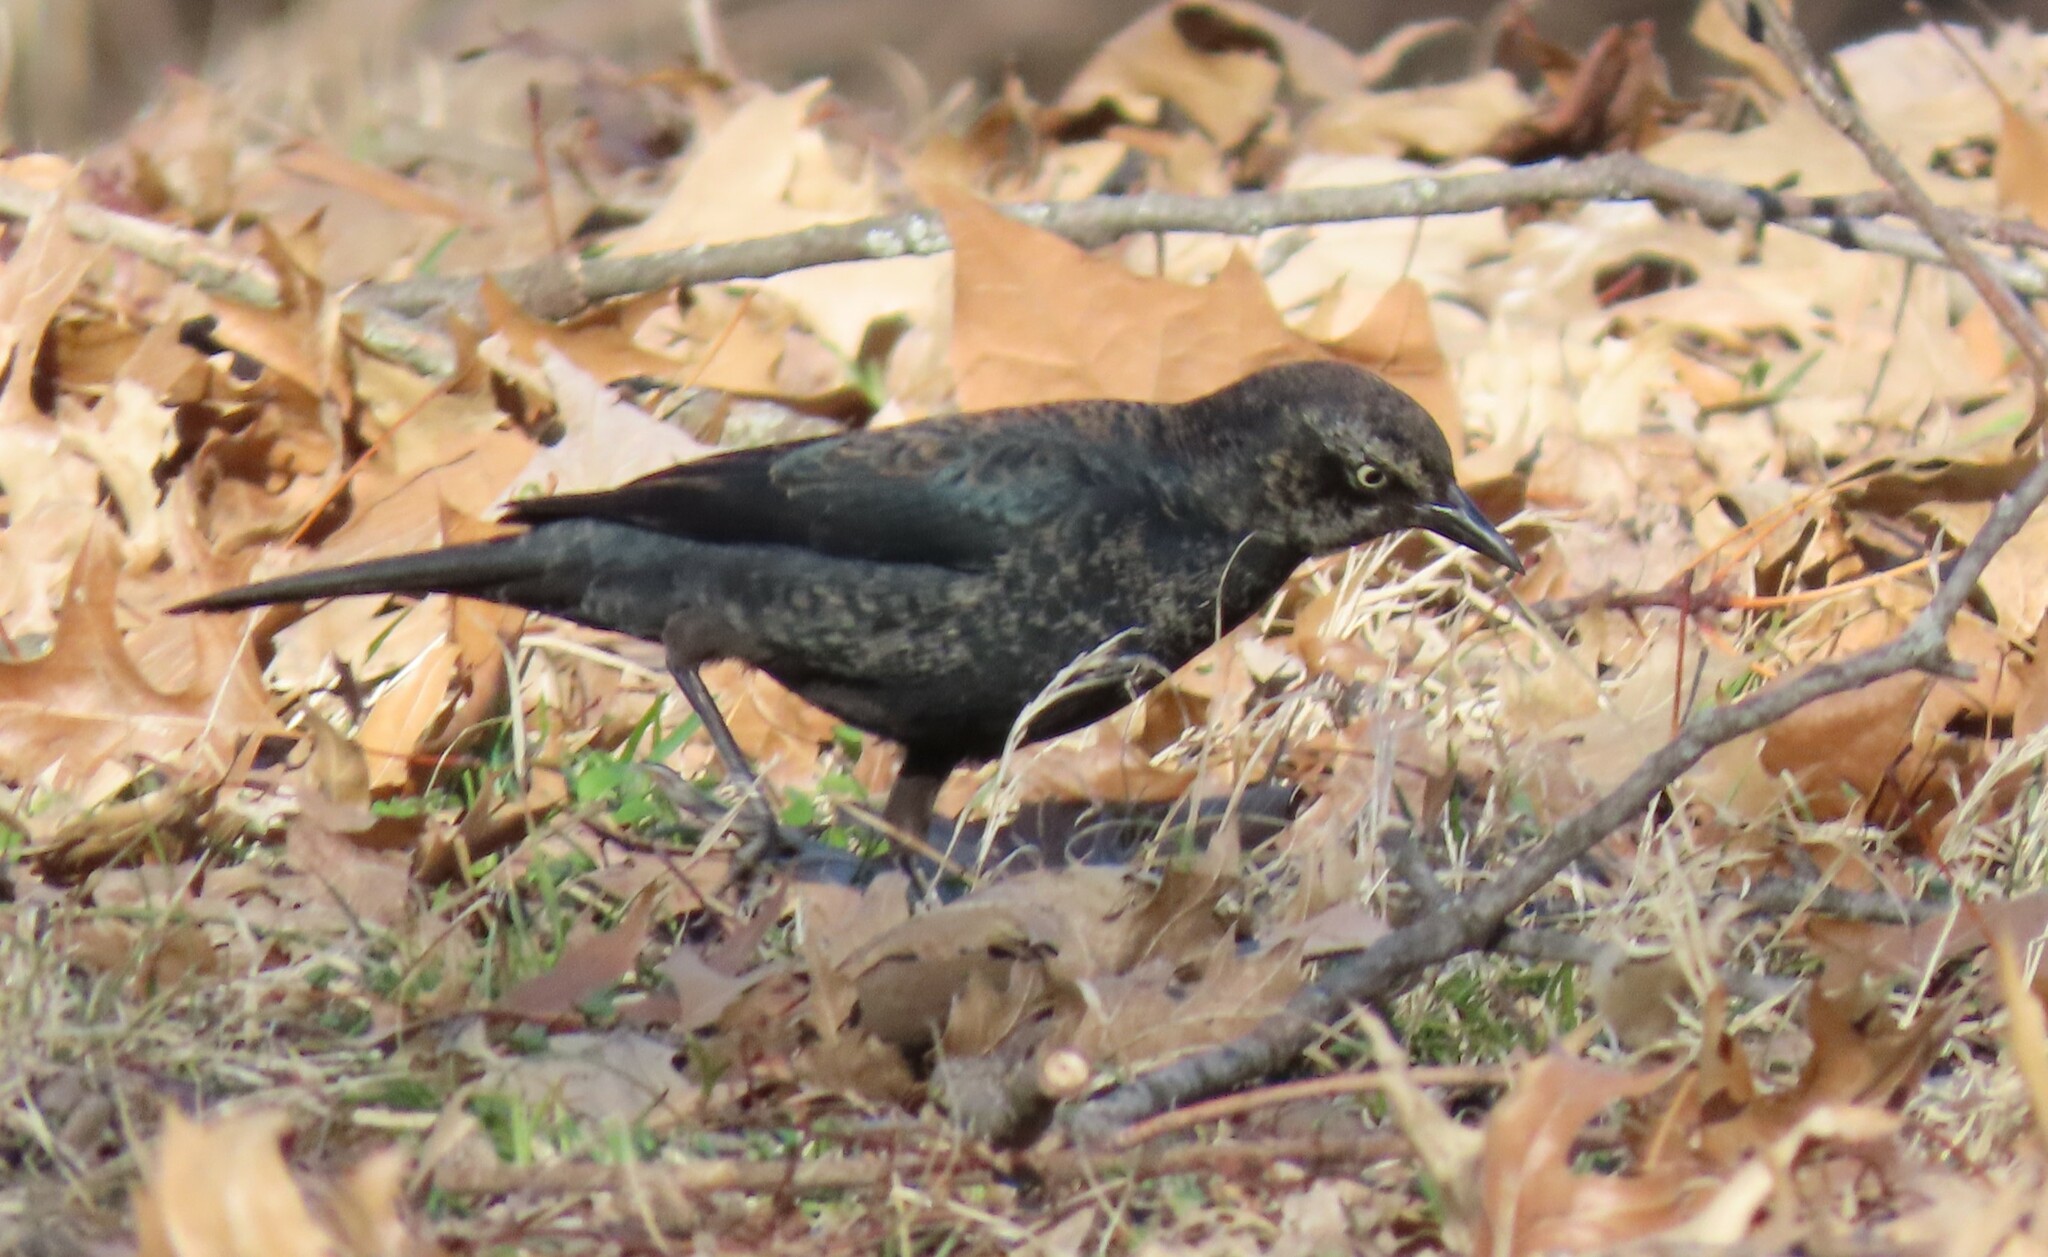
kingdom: Animalia
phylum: Chordata
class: Aves
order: Passeriformes
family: Icteridae
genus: Euphagus
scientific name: Euphagus carolinus
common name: Rusty blackbird
